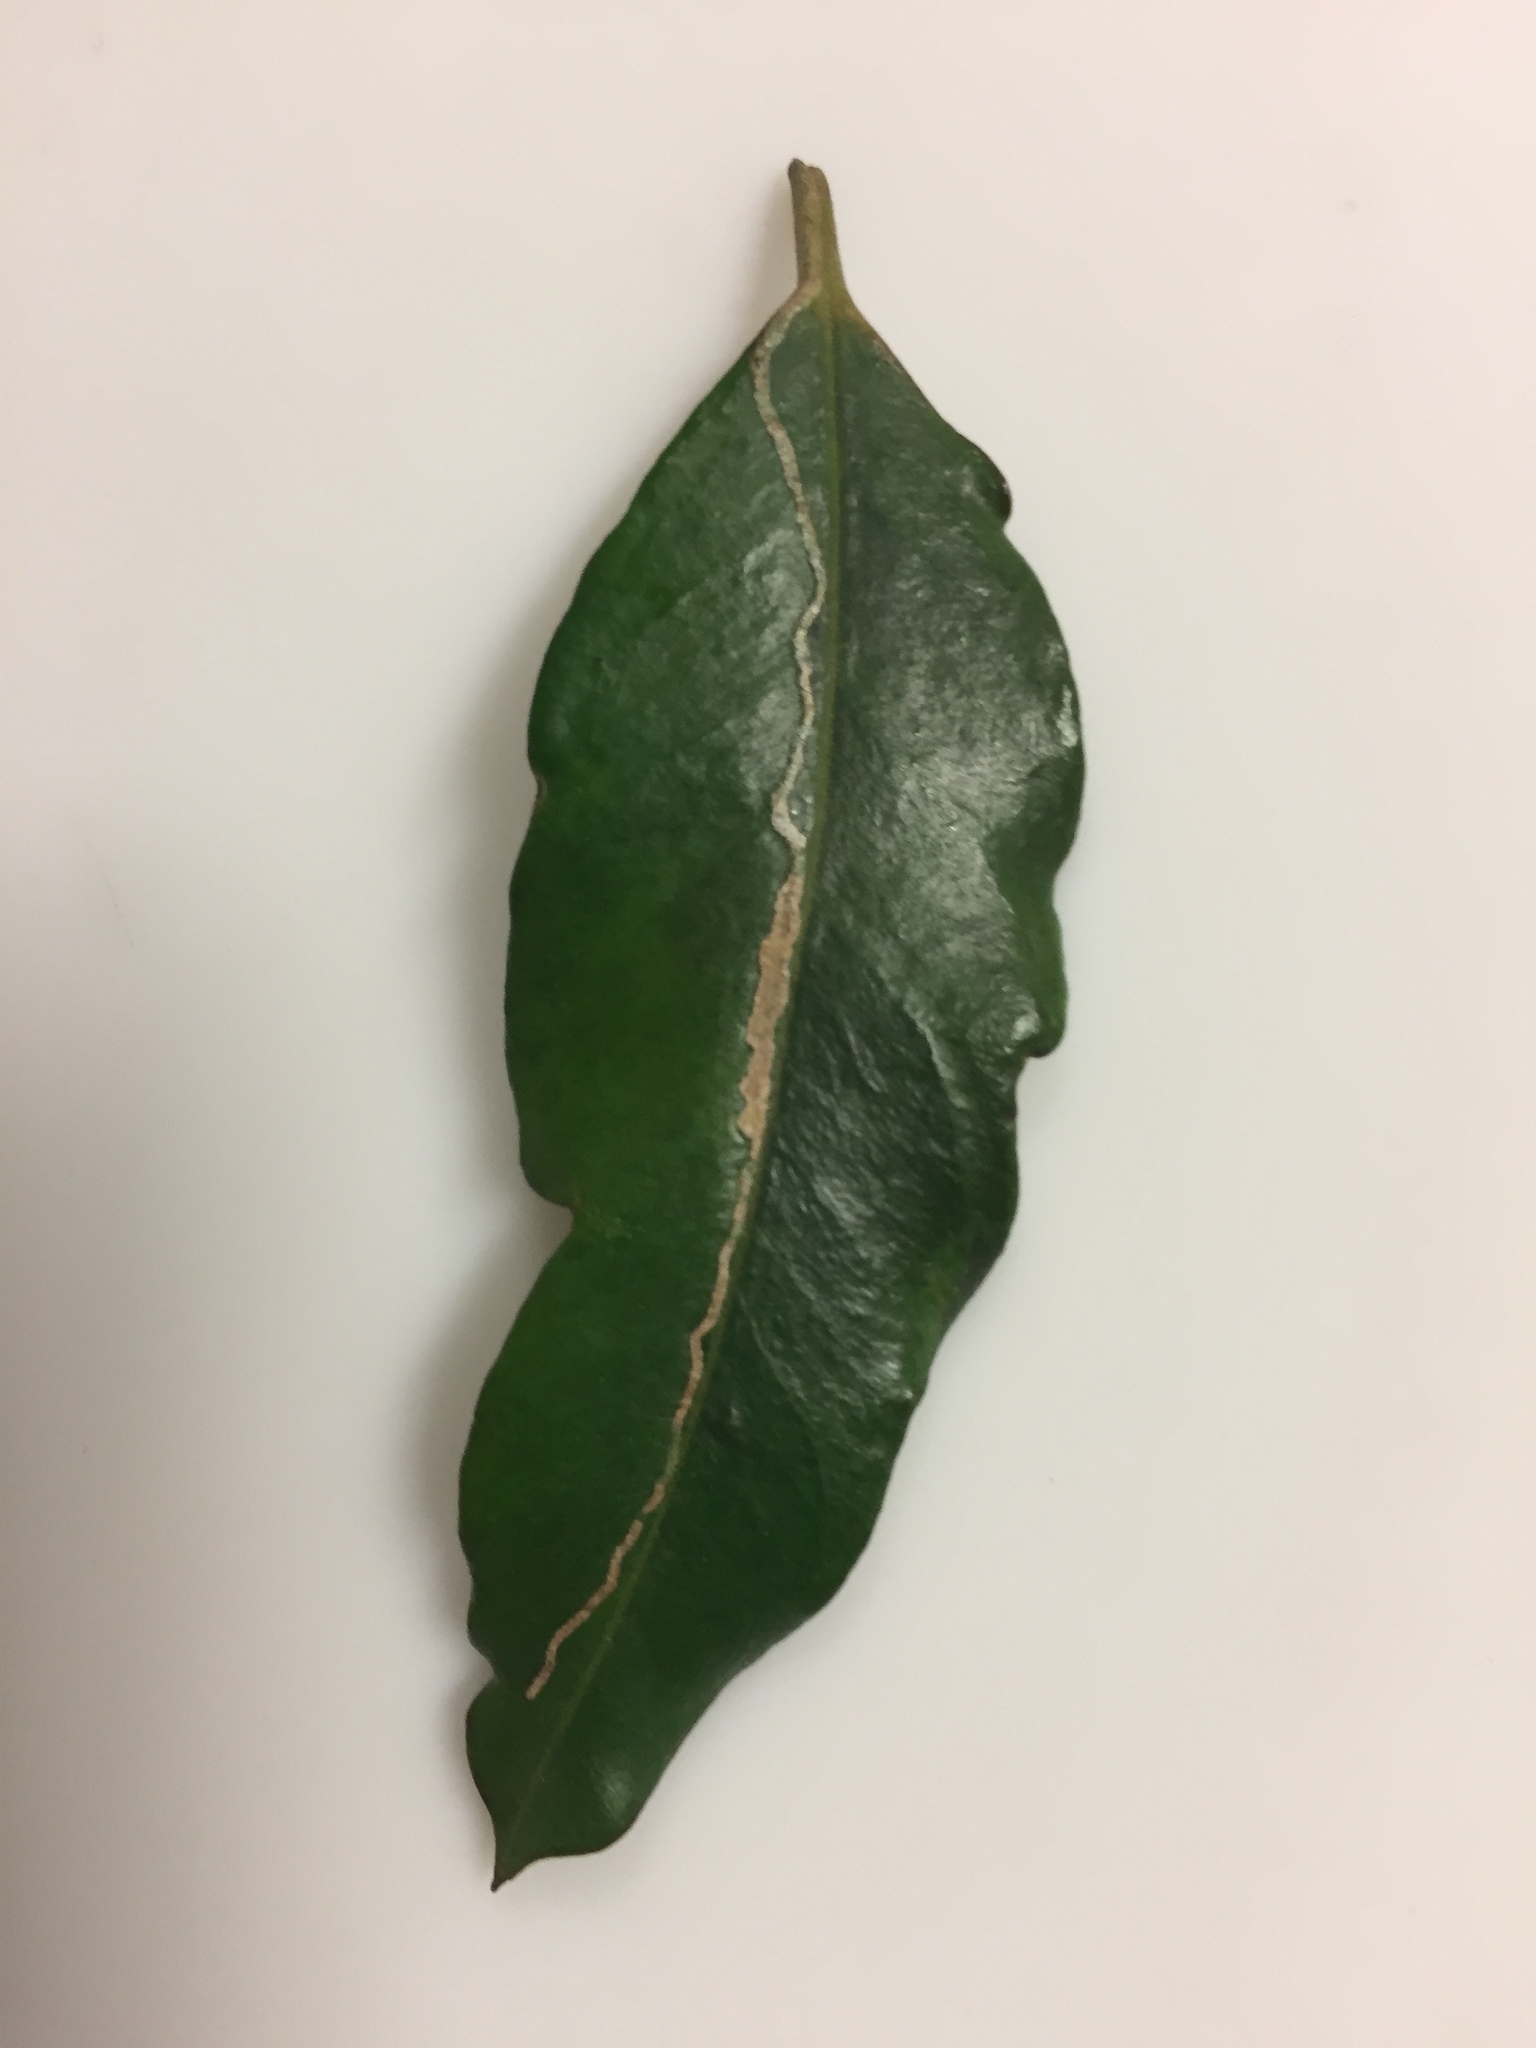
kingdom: Animalia
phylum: Arthropoda
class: Insecta
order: Lepidoptera
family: Gracillariidae
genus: Eumetriochroa
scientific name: Eumetriochroa aethalota
